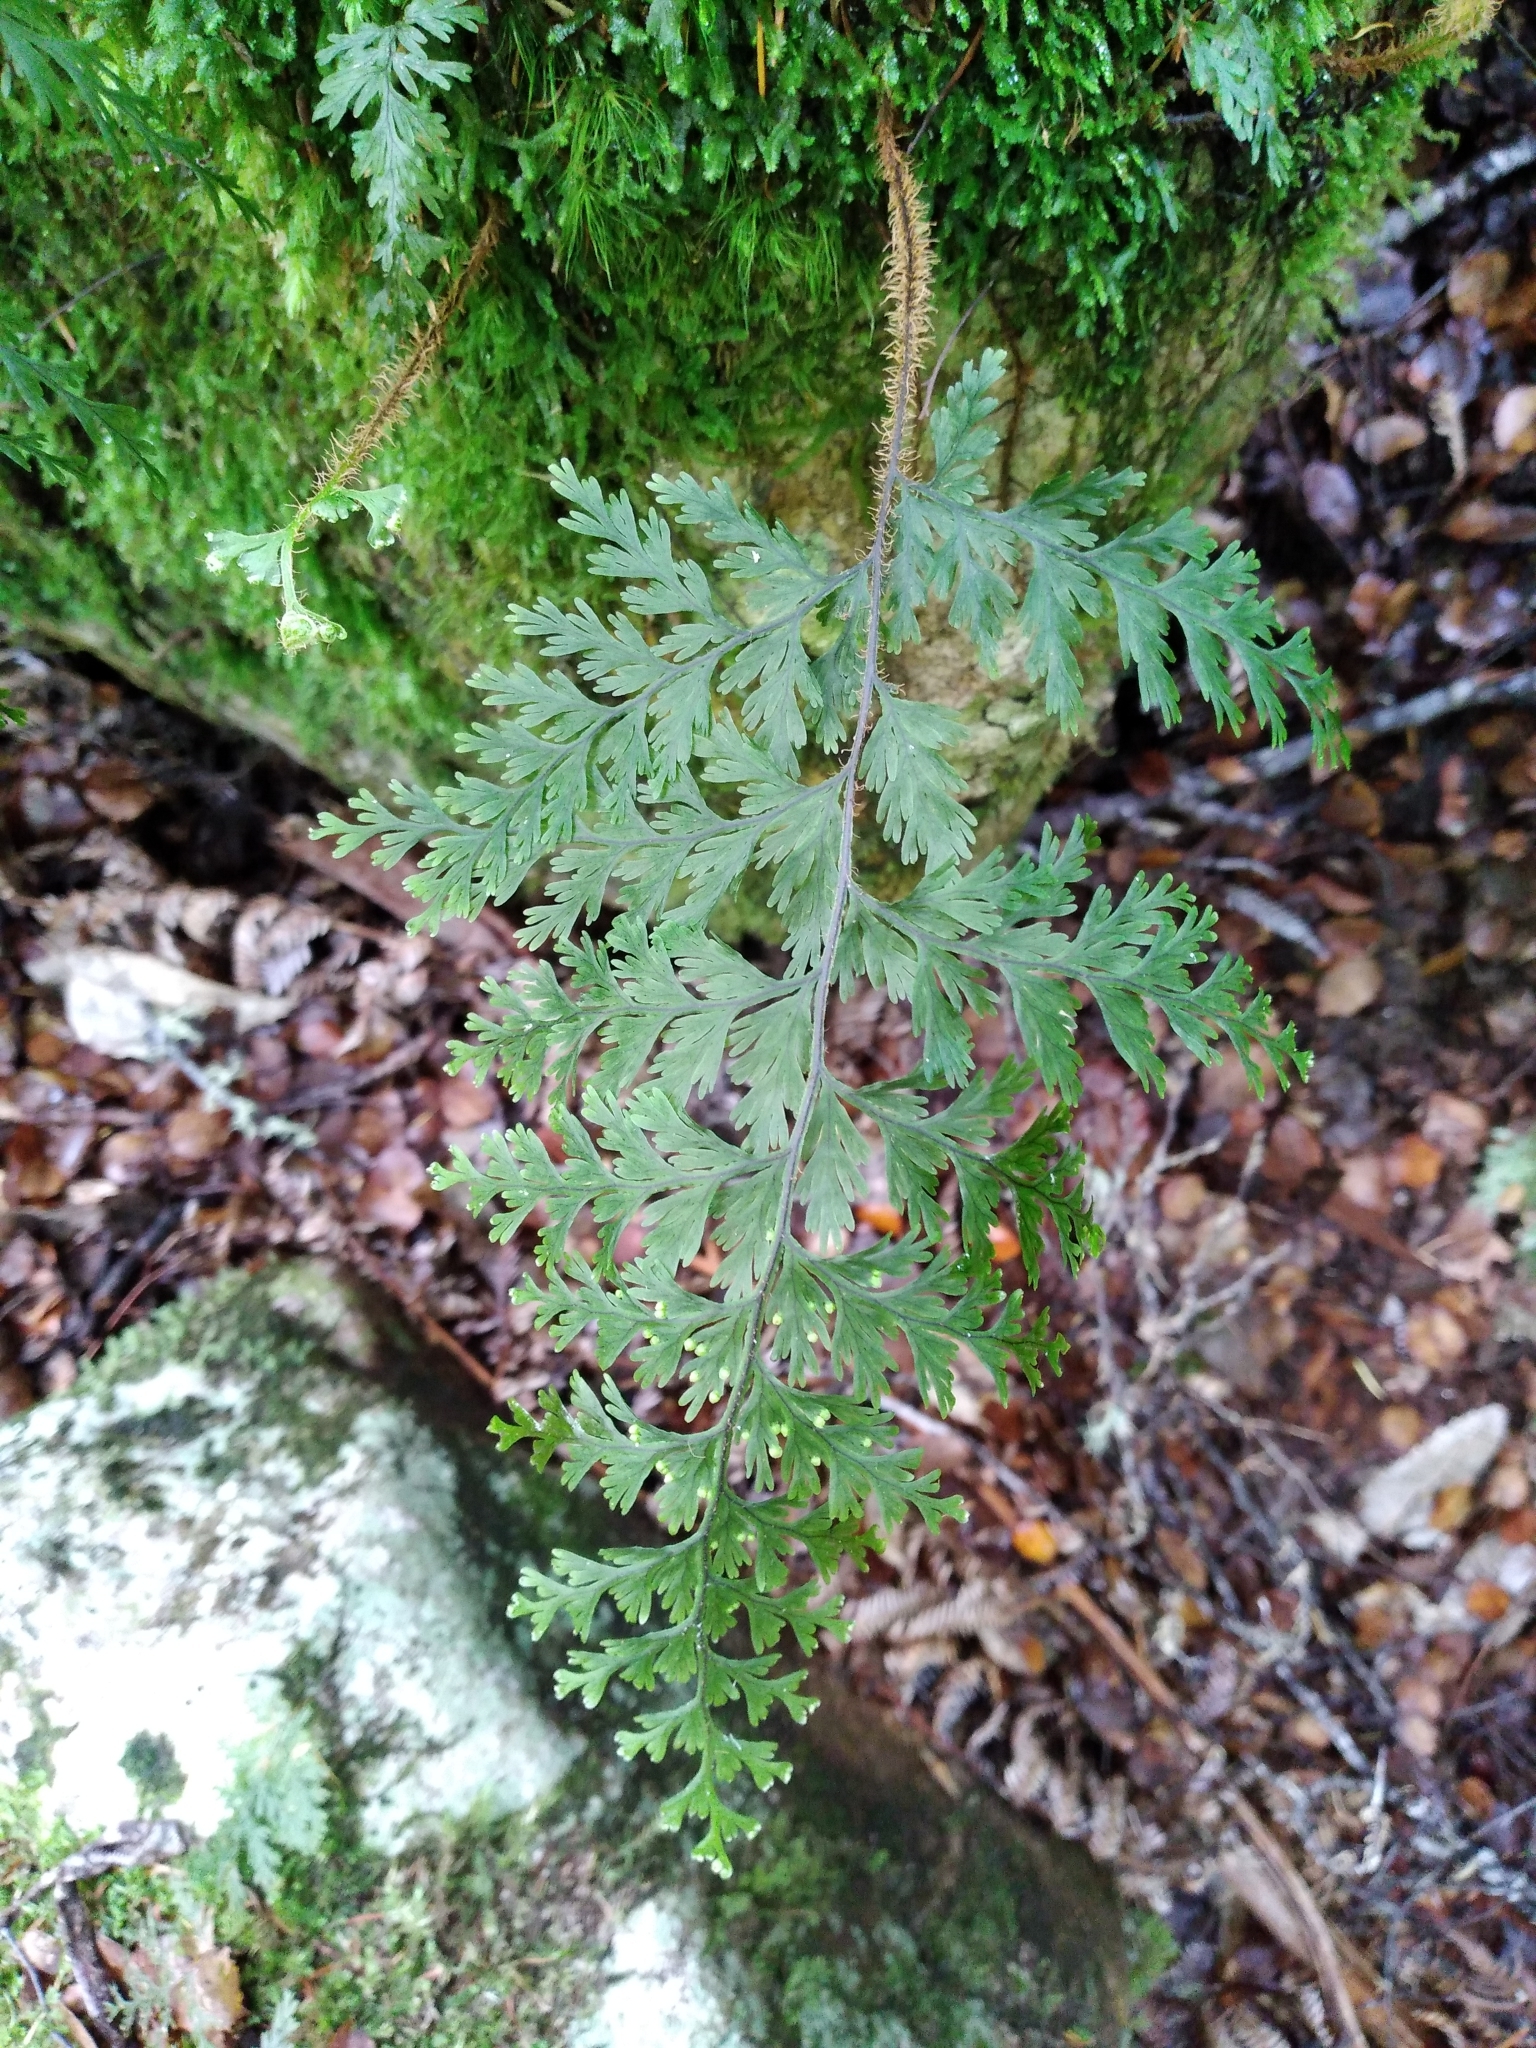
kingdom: Plantae
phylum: Tracheophyta
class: Polypodiopsida
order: Hymenophyllales
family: Hymenophyllaceae
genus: Hymenophyllum
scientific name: Hymenophyllum scabrum
